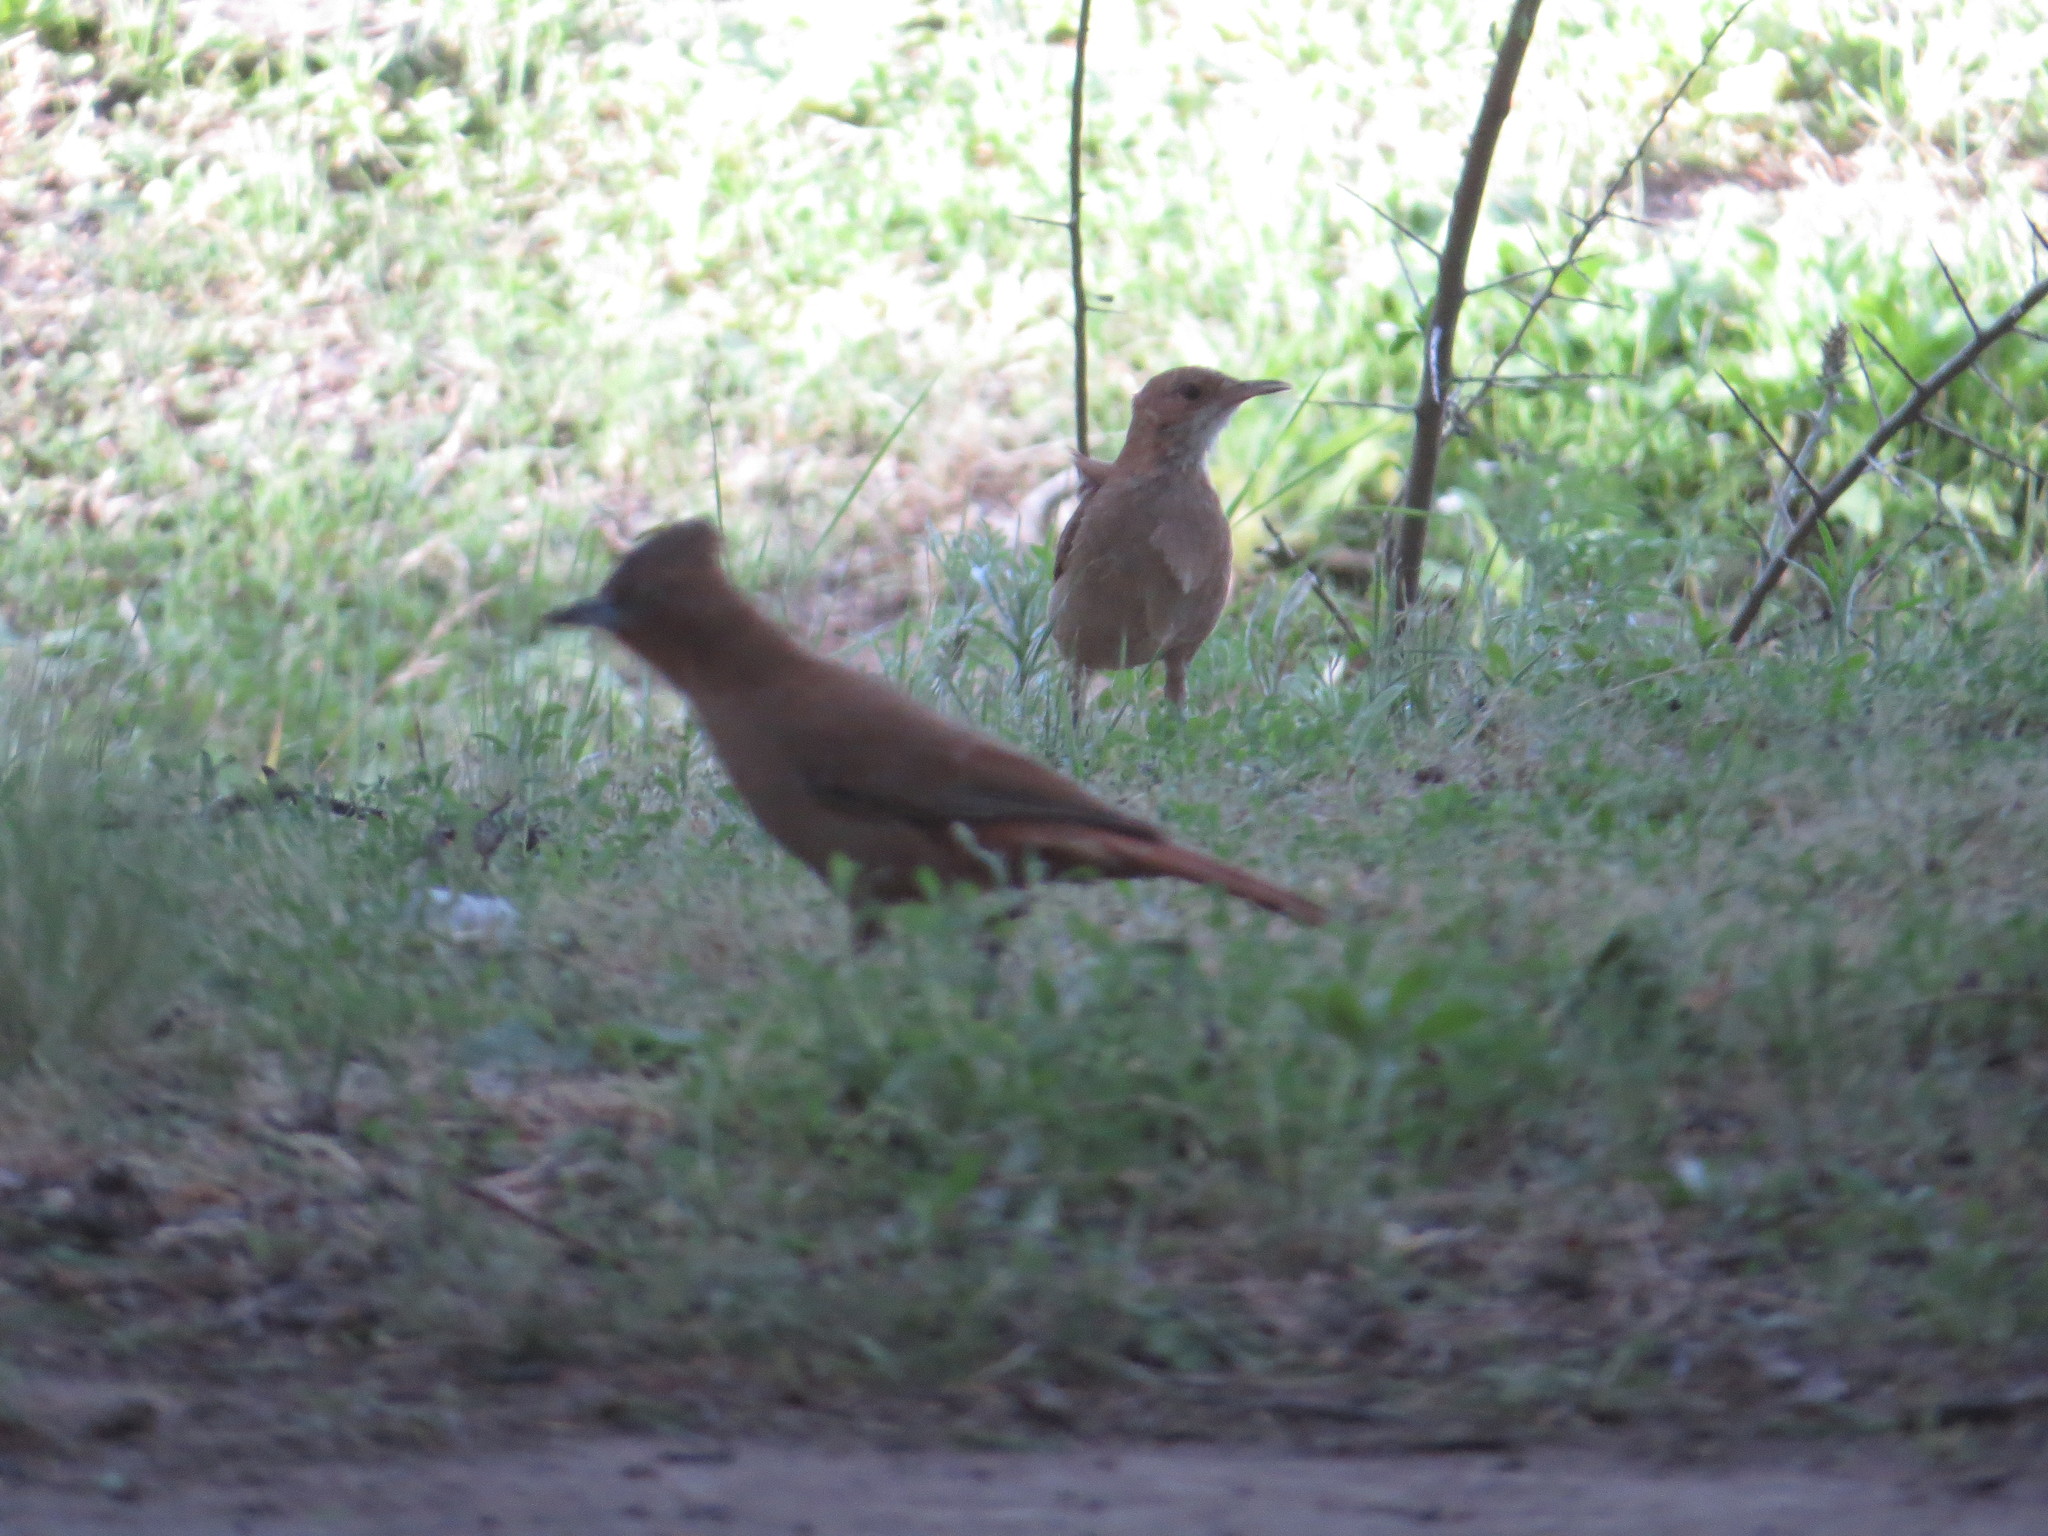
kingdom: Animalia
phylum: Chordata
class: Aves
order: Passeriformes
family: Furnariidae
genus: Pseudoseisura
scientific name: Pseudoseisura lophotes
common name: Brown cacholote
